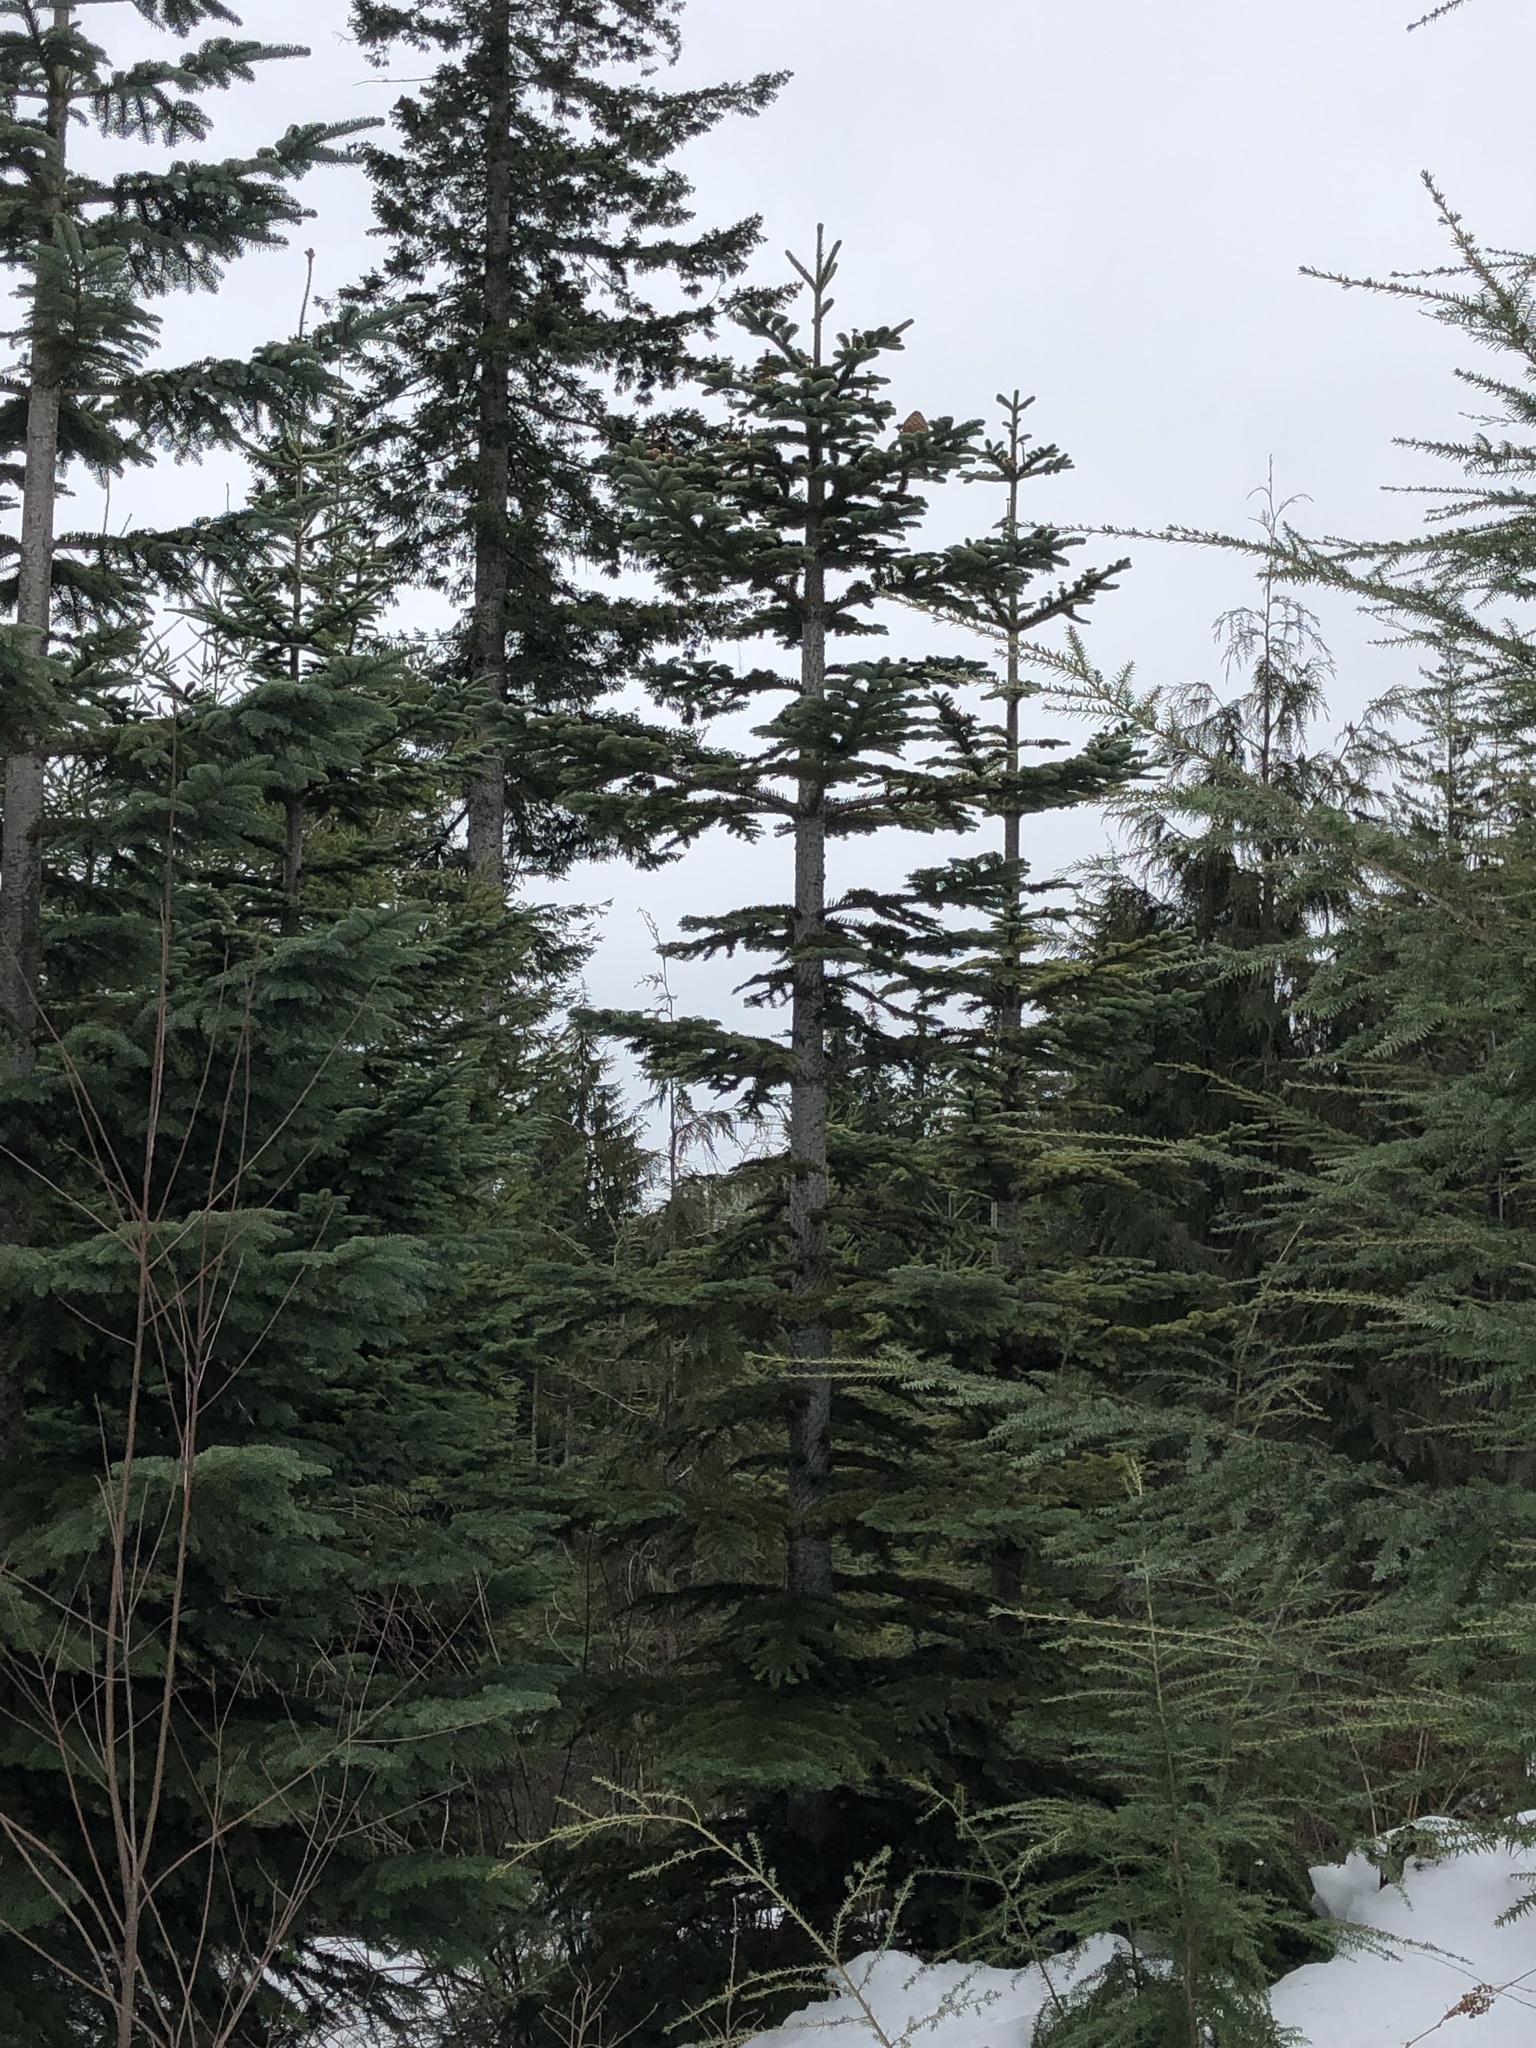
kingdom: Plantae
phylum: Tracheophyta
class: Pinopsida
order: Pinales
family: Pinaceae
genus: Abies
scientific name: Abies procera
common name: Noble fir
